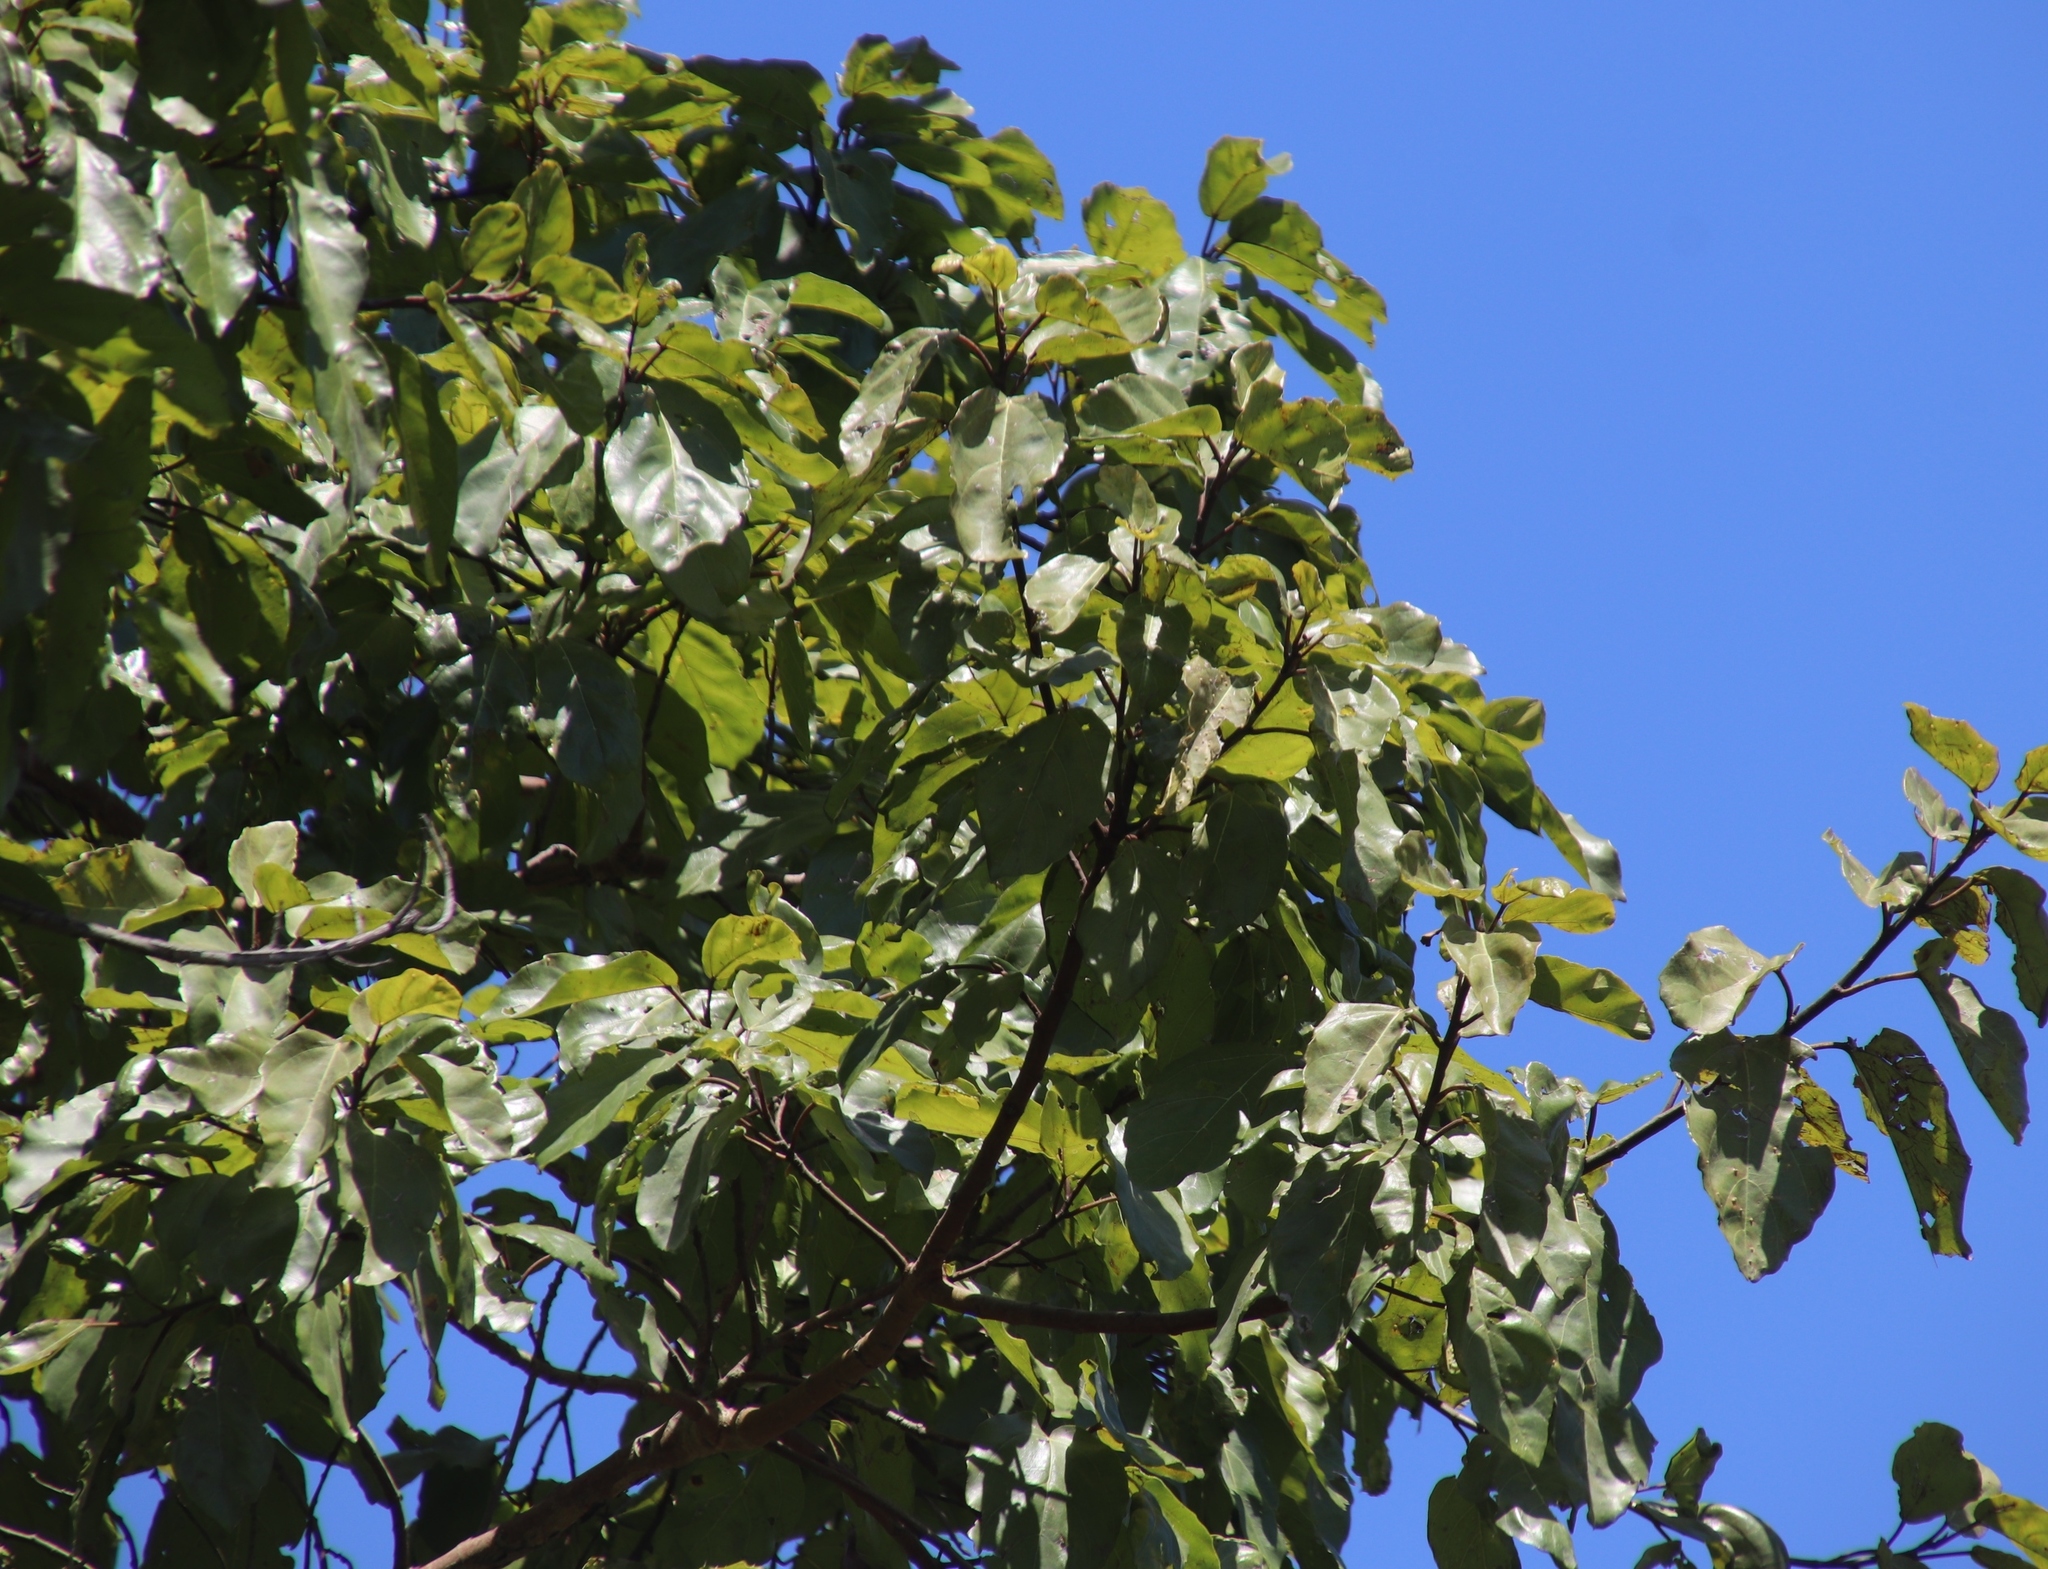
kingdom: Plantae
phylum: Tracheophyta
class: Magnoliopsida
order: Rosales
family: Moraceae
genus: Ficus
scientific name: Ficus sur
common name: Cape fig
